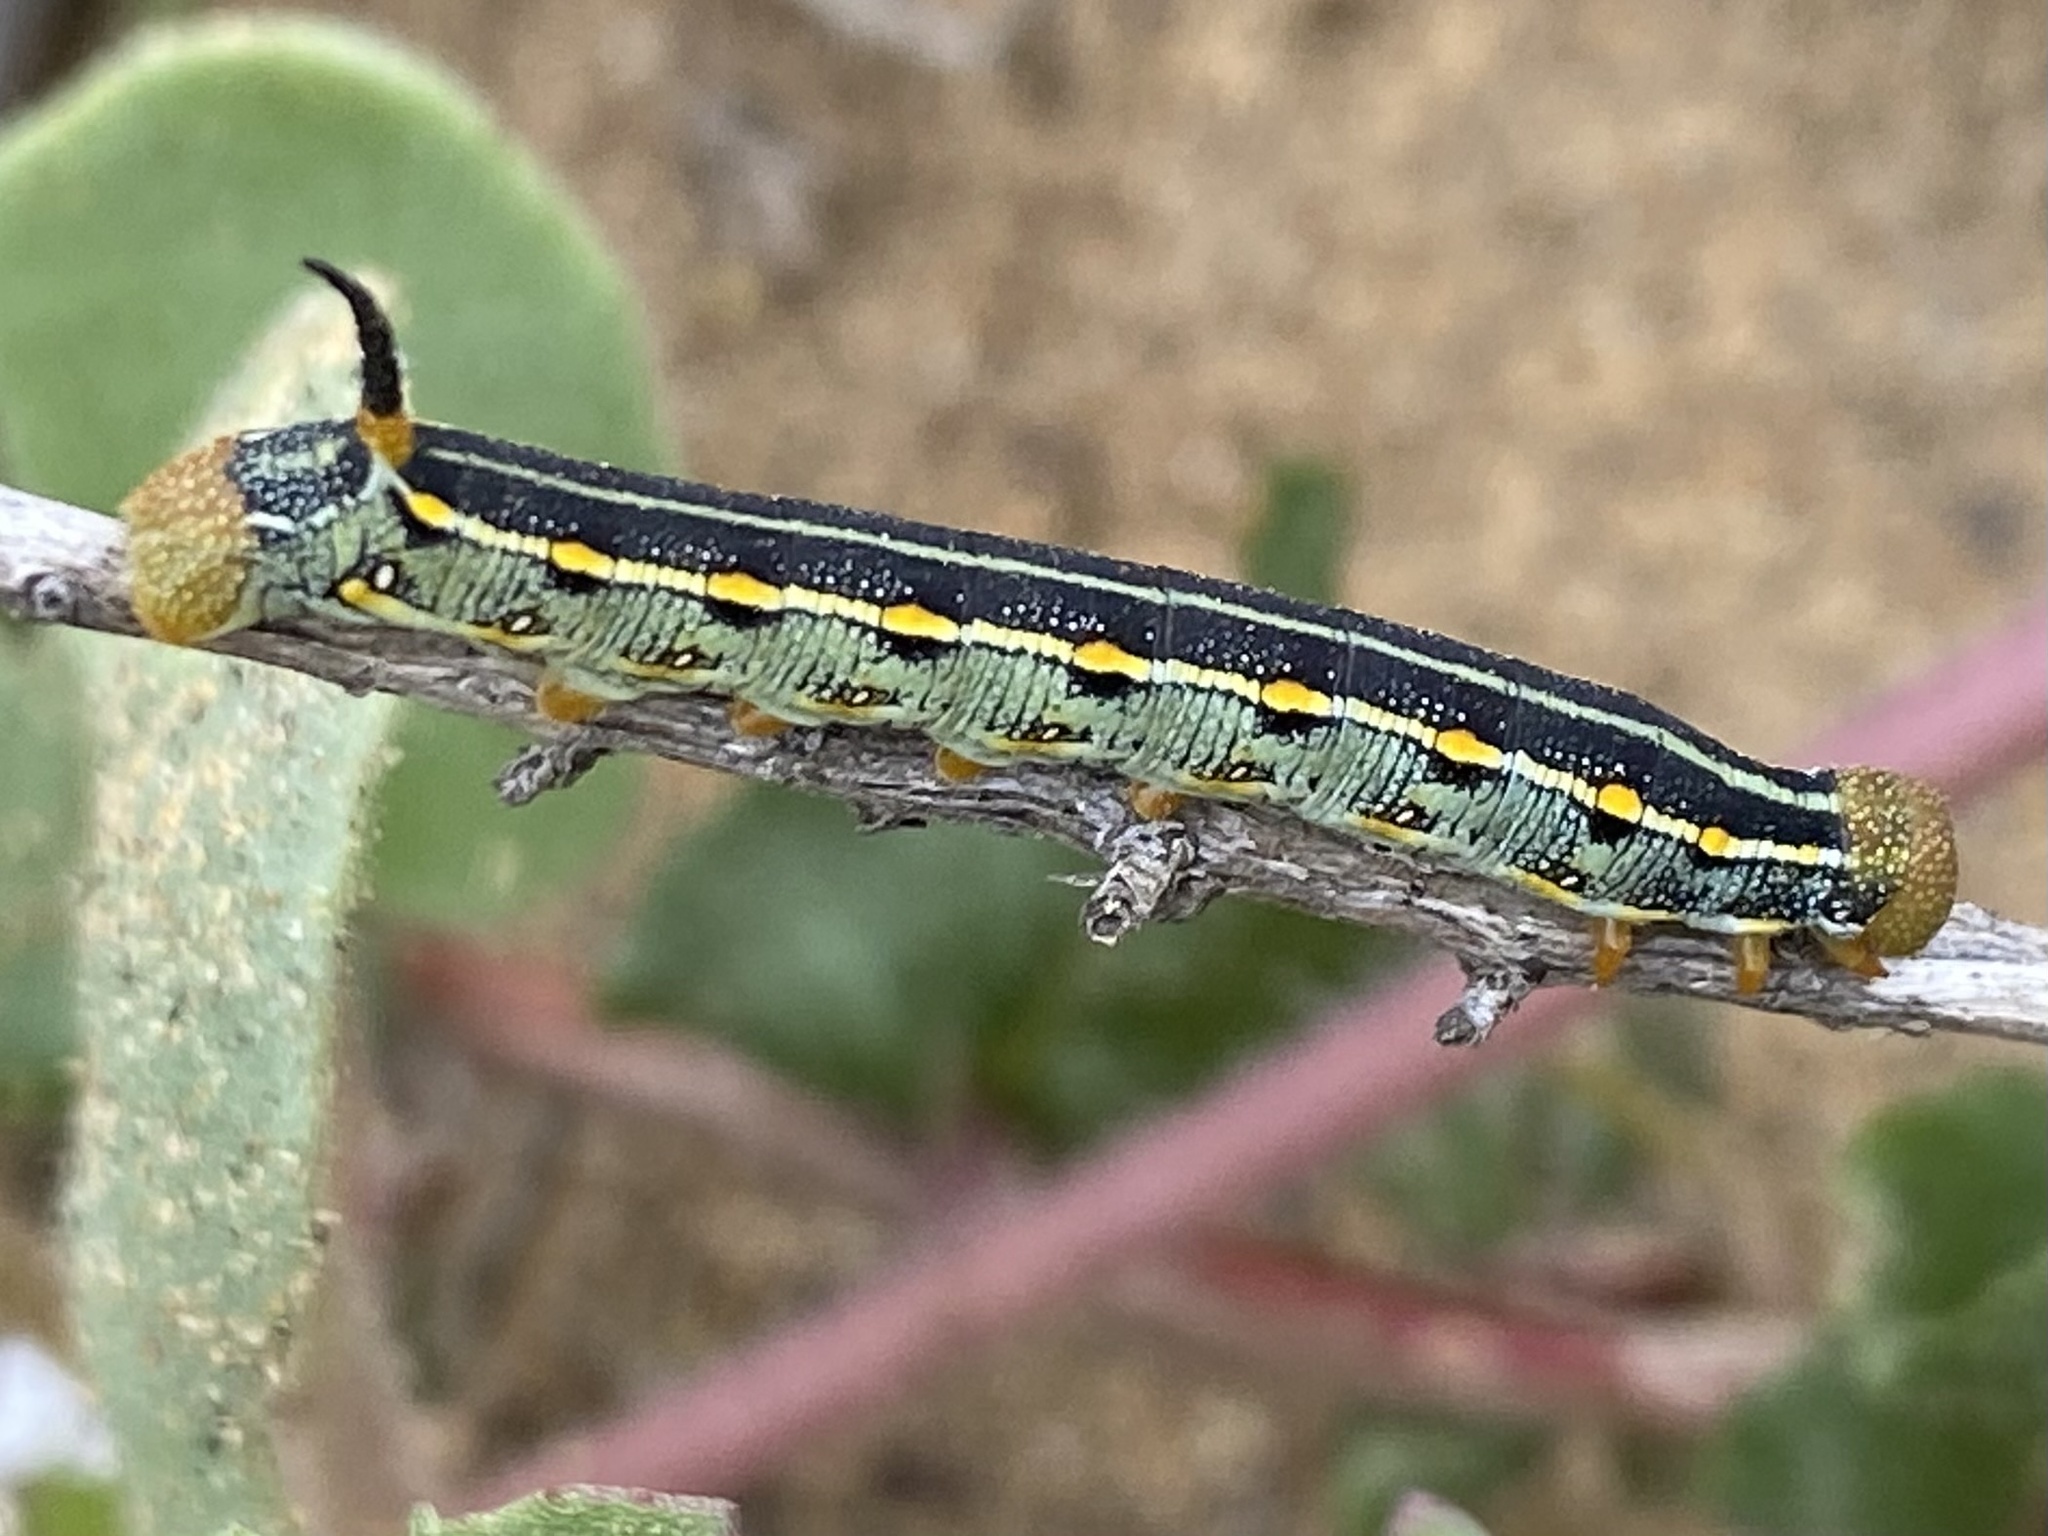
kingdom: Animalia
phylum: Arthropoda
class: Insecta
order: Lepidoptera
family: Sphingidae
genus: Hyles
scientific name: Hyles lineata
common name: White-lined sphinx
